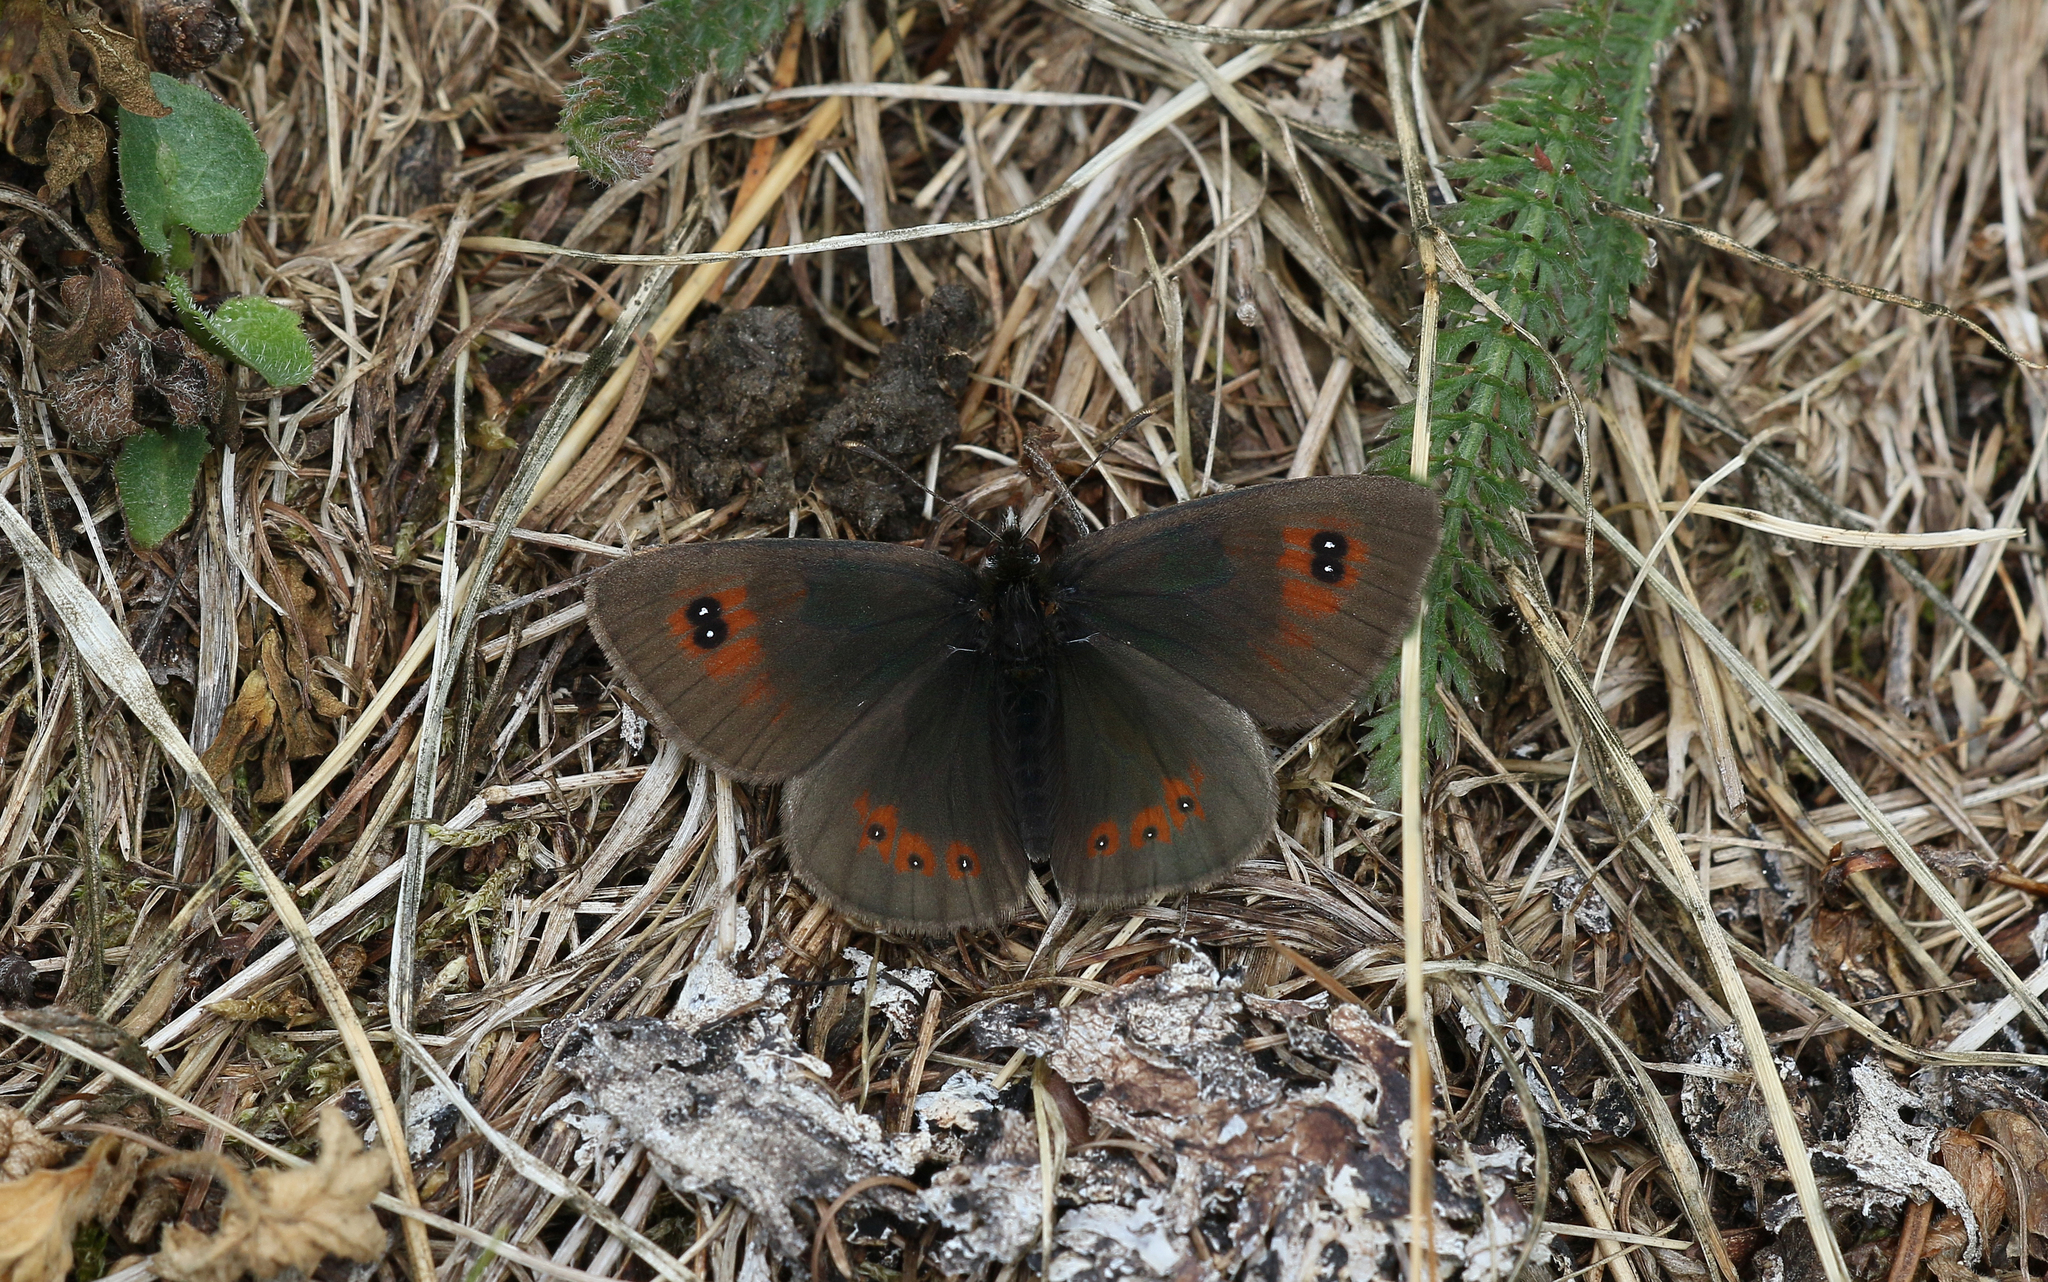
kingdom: Animalia
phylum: Arthropoda
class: Insecta
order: Lepidoptera
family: Nymphalidae
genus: Erebia
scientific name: Erebia cassioides
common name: Common brassy ringlet
